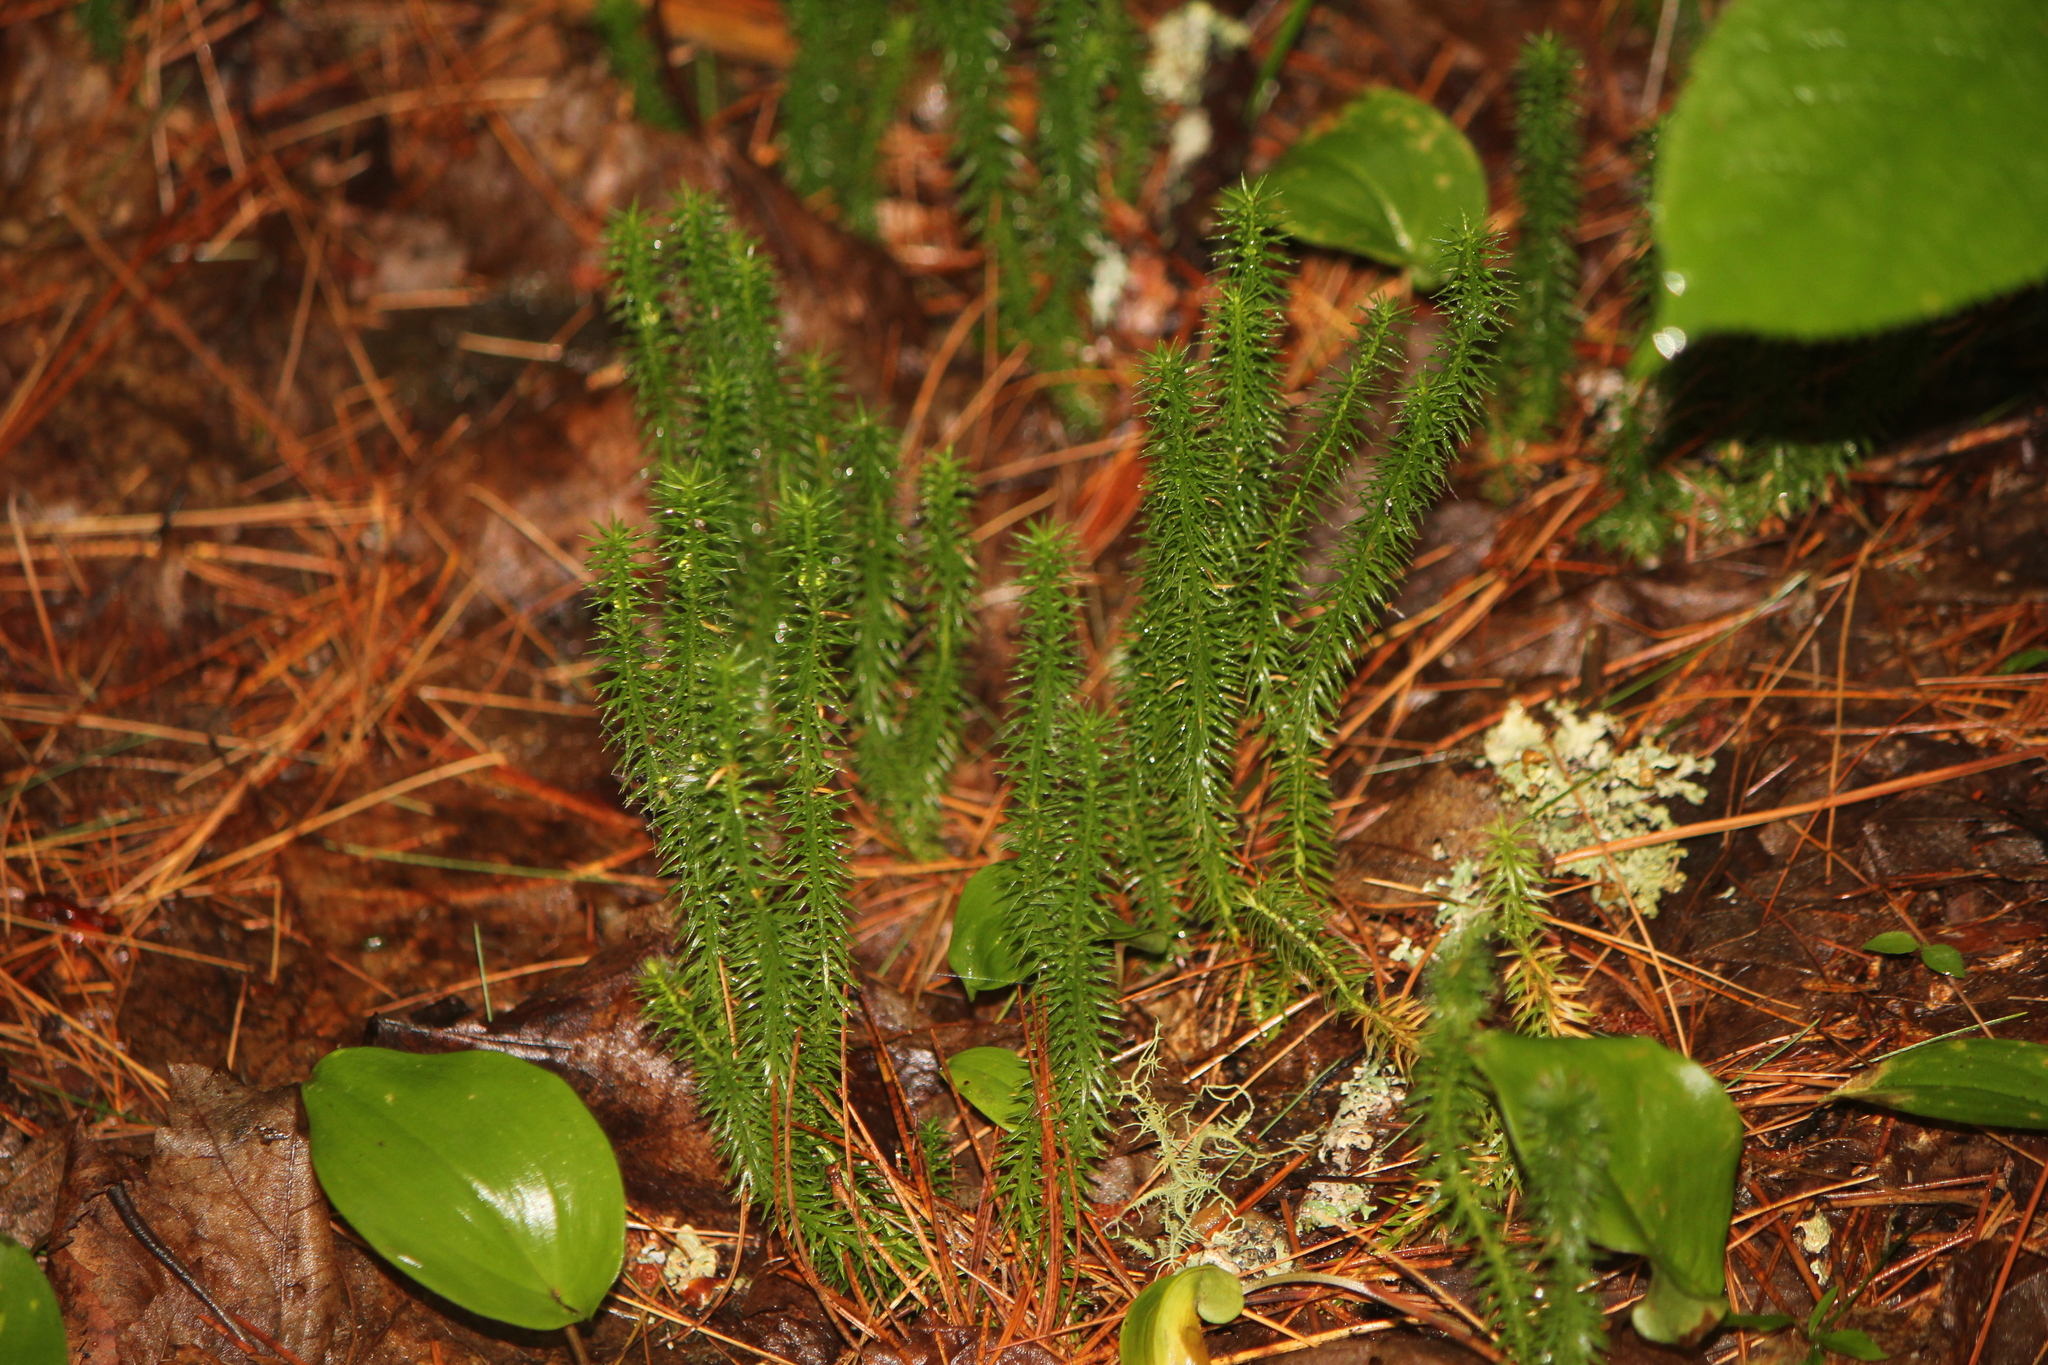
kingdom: Plantae
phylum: Tracheophyta
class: Lycopodiopsida
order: Lycopodiales
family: Lycopodiaceae
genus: Spinulum
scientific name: Spinulum annotinum
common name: Interrupted club-moss
